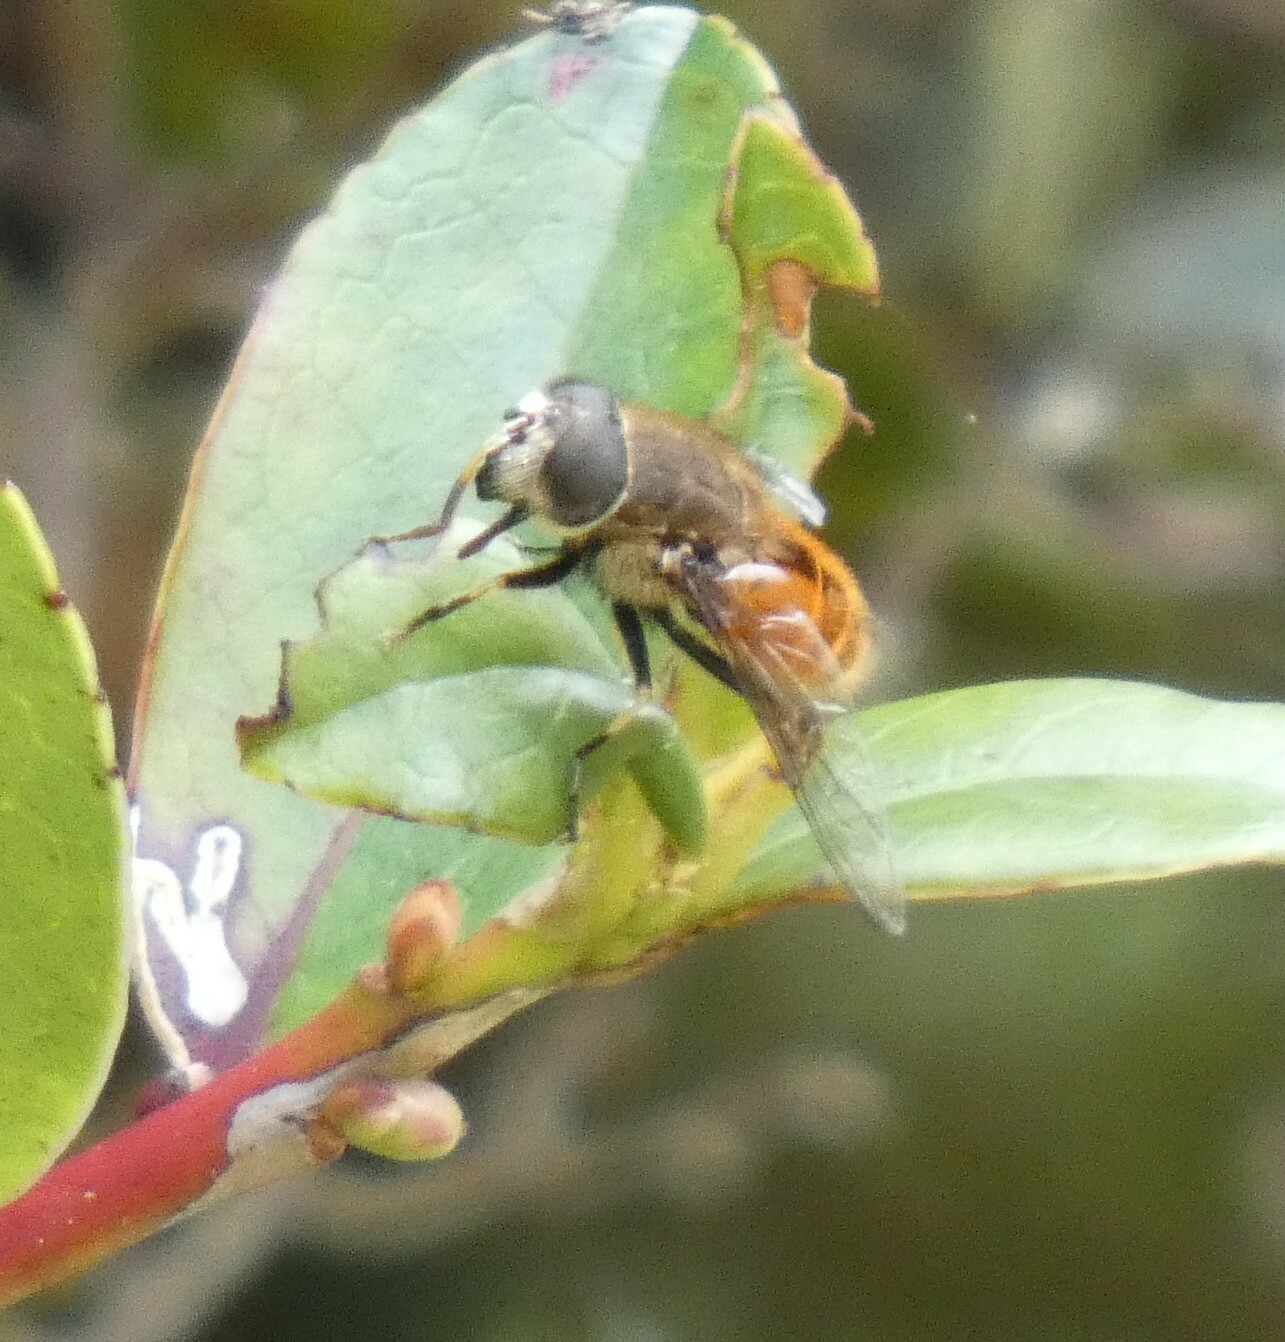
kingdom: Animalia
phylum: Arthropoda
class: Insecta
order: Diptera
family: Syrphidae
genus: Eristalis
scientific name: Eristalis bogotensis
